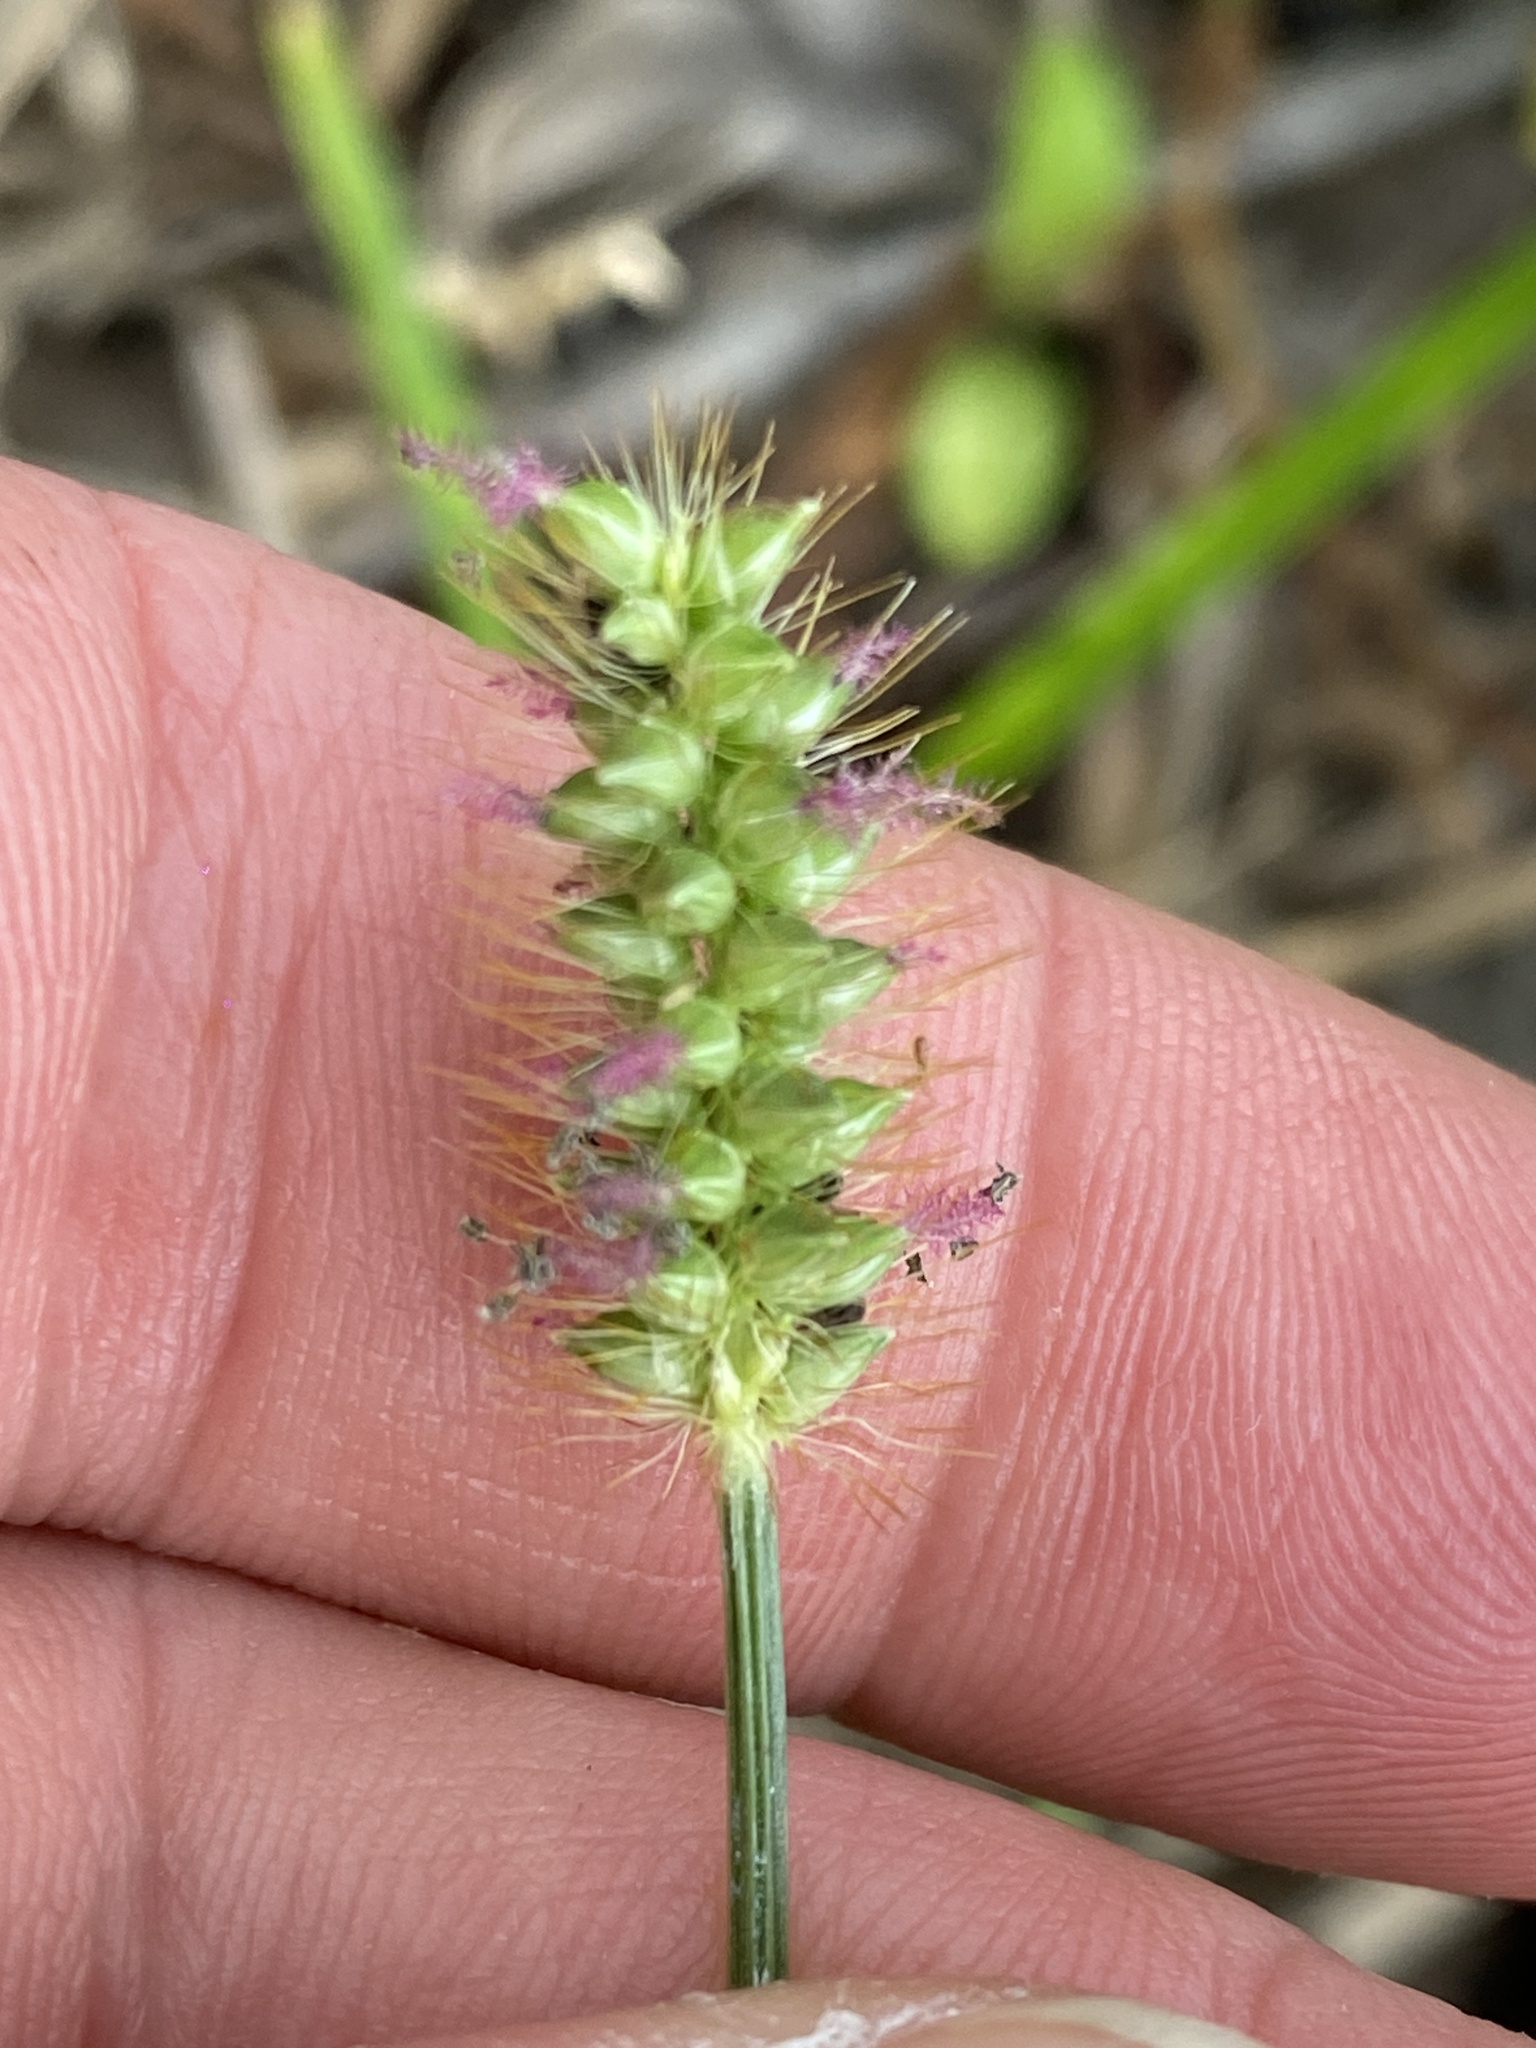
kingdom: Plantae
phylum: Tracheophyta
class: Liliopsida
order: Poales
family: Poaceae
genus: Setaria
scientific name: Setaria pumila
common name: Yellow bristle-grass
